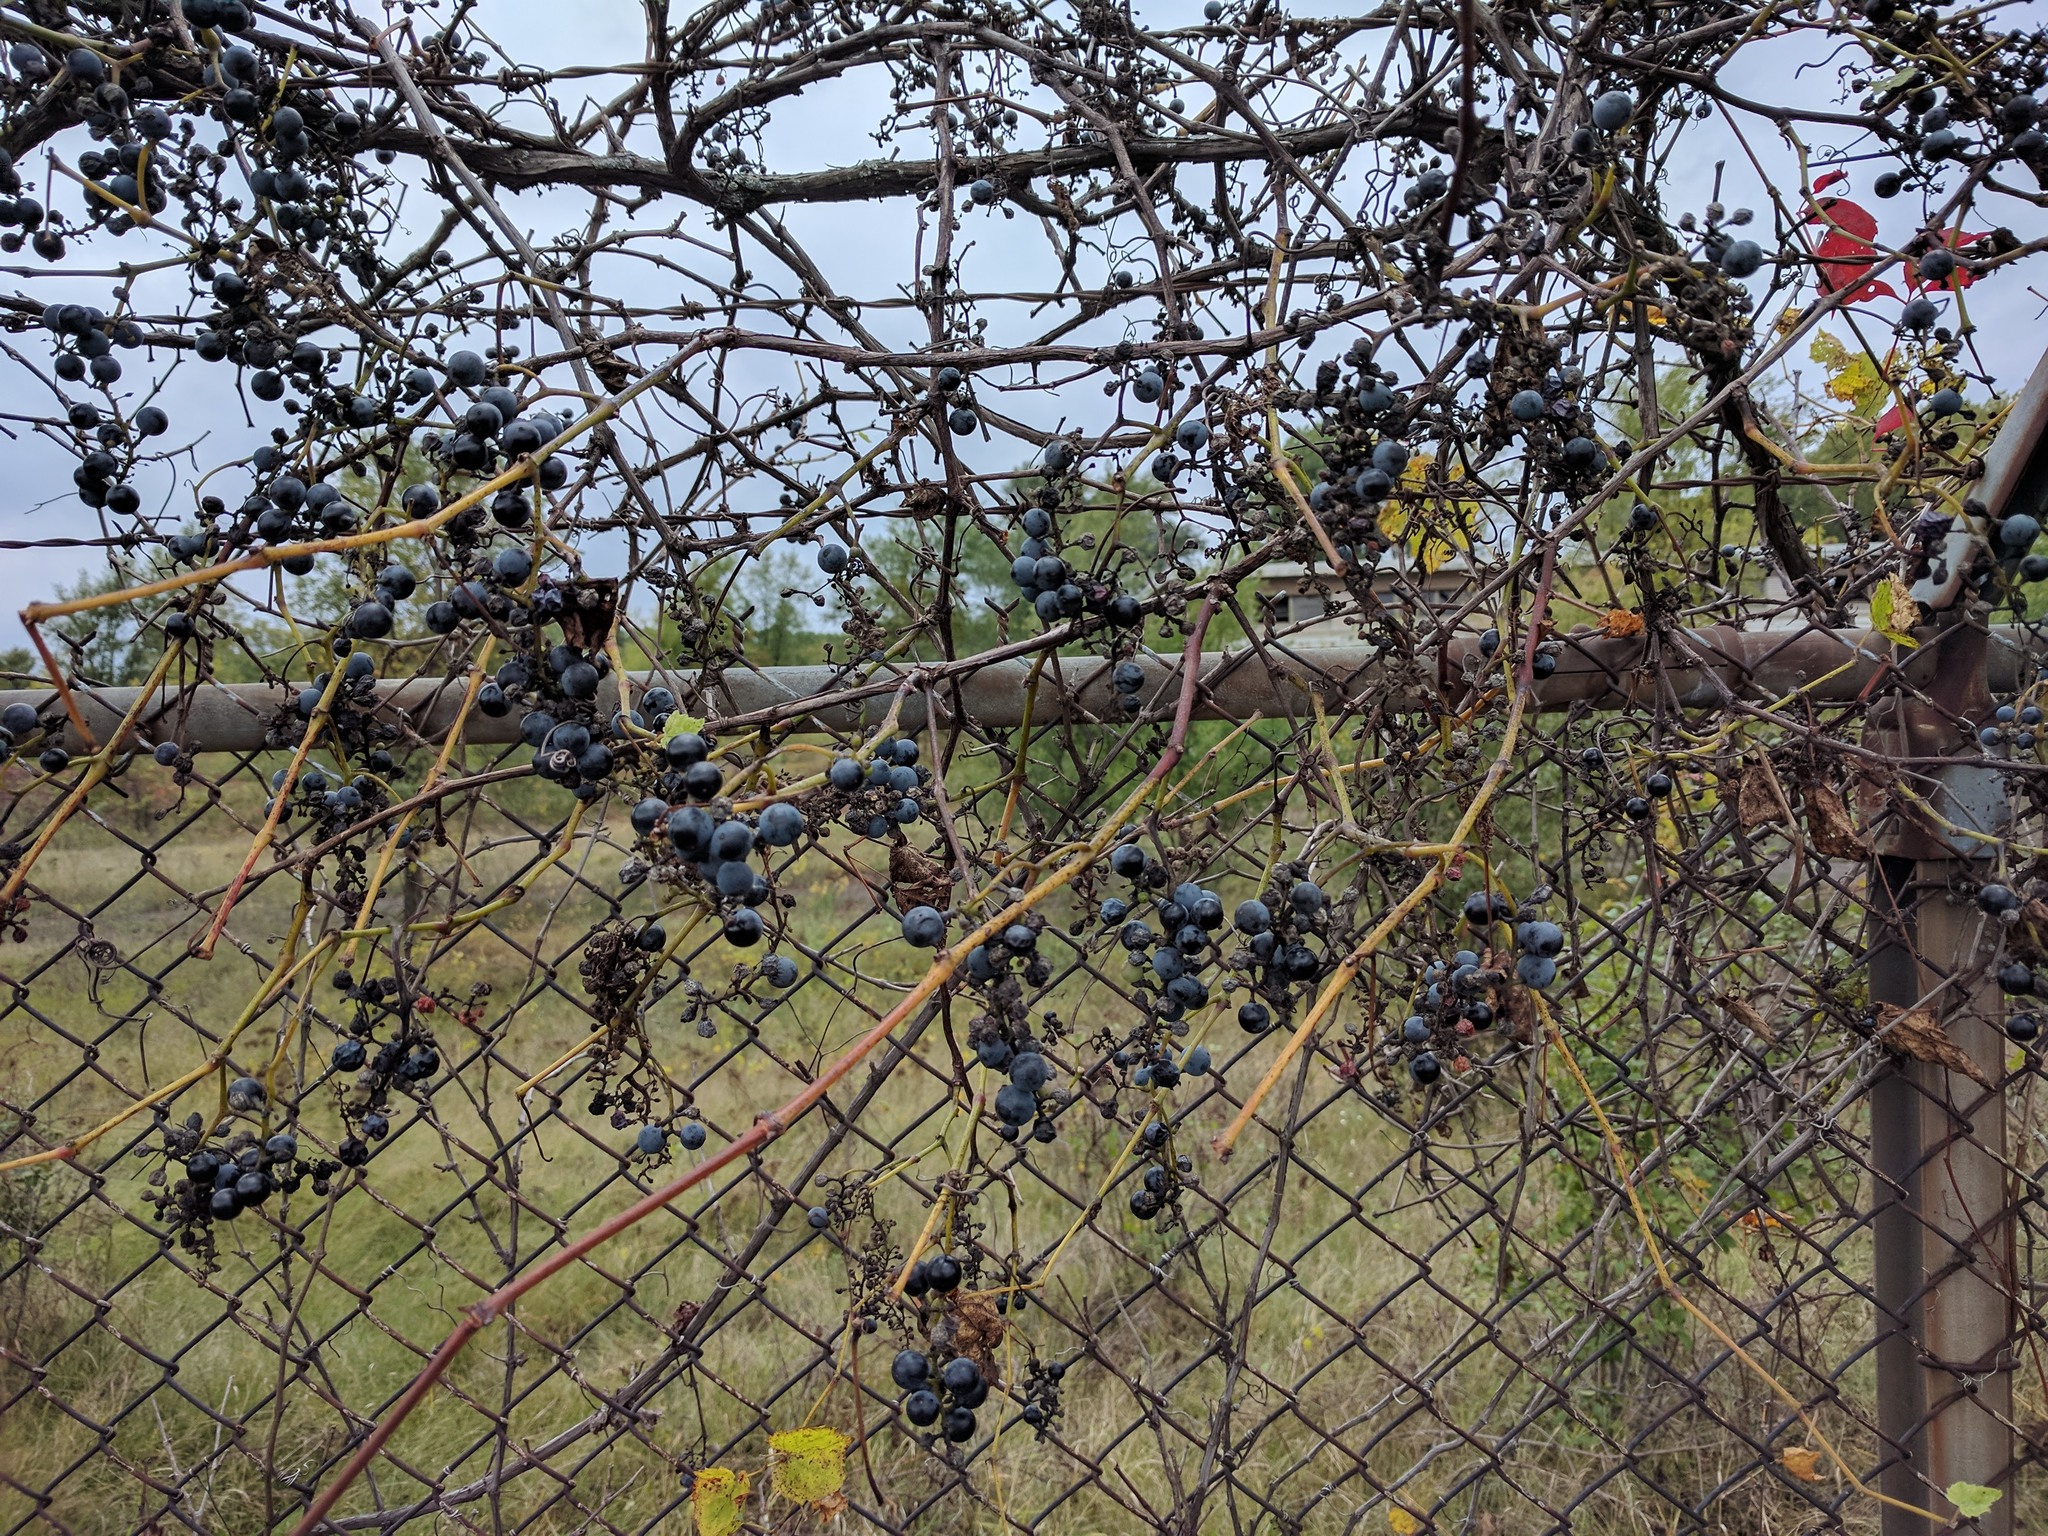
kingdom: Plantae
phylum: Tracheophyta
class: Magnoliopsida
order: Vitales
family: Vitaceae
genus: Vitis
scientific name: Vitis riparia
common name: Frost grape
